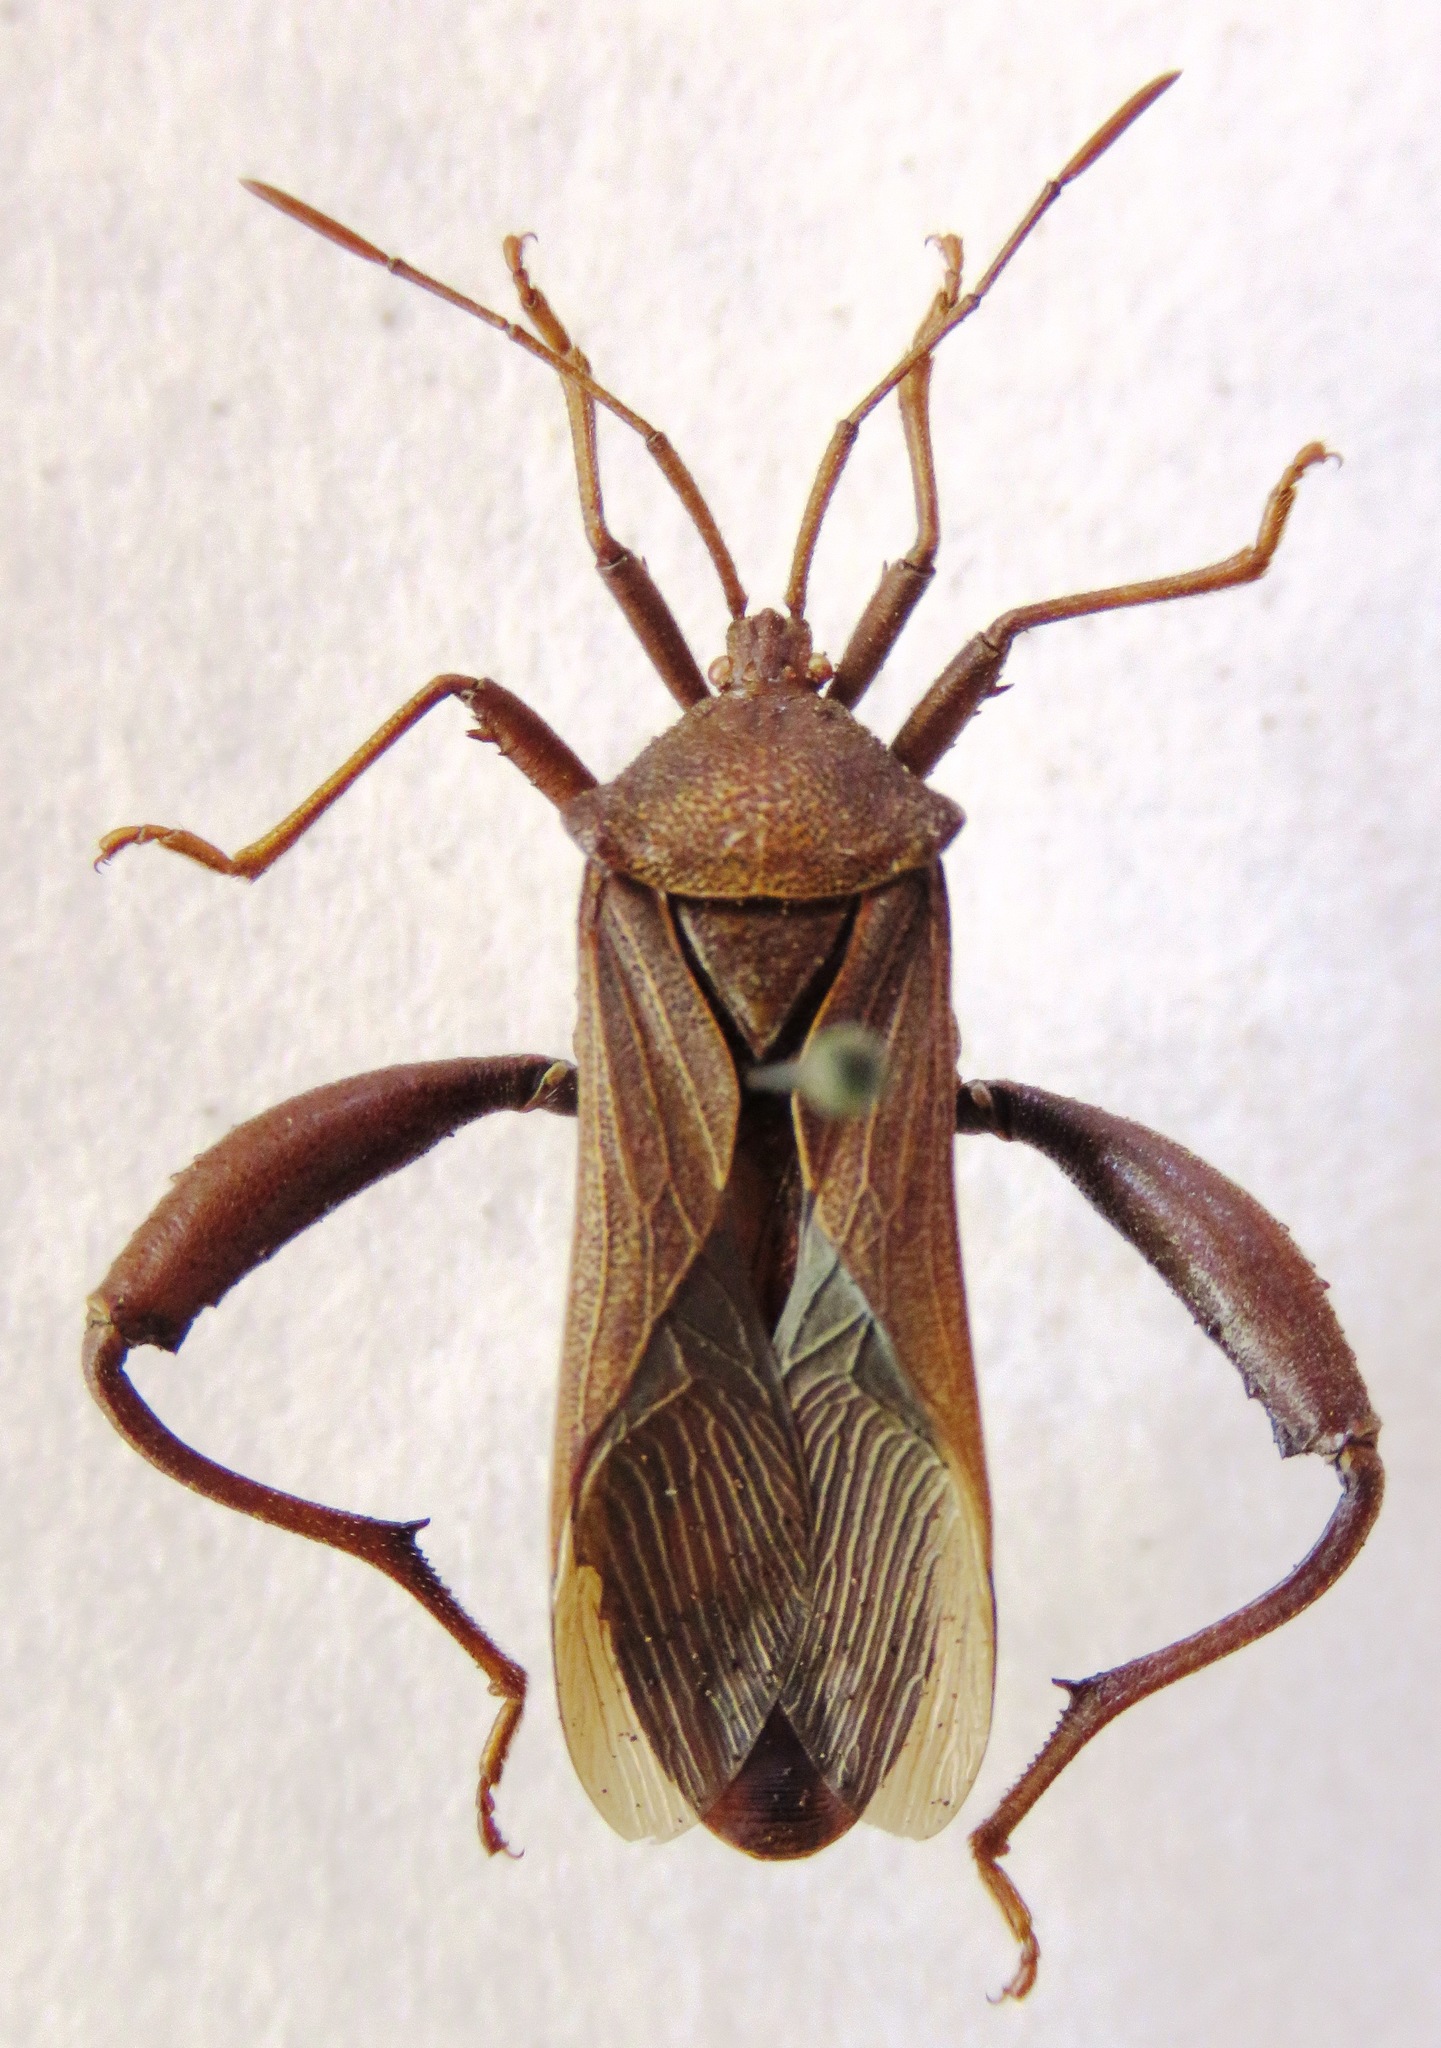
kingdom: Animalia
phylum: Arthropoda
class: Insecta
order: Hemiptera
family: Coreidae
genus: Piezogaster
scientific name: Piezogaster odiosus
